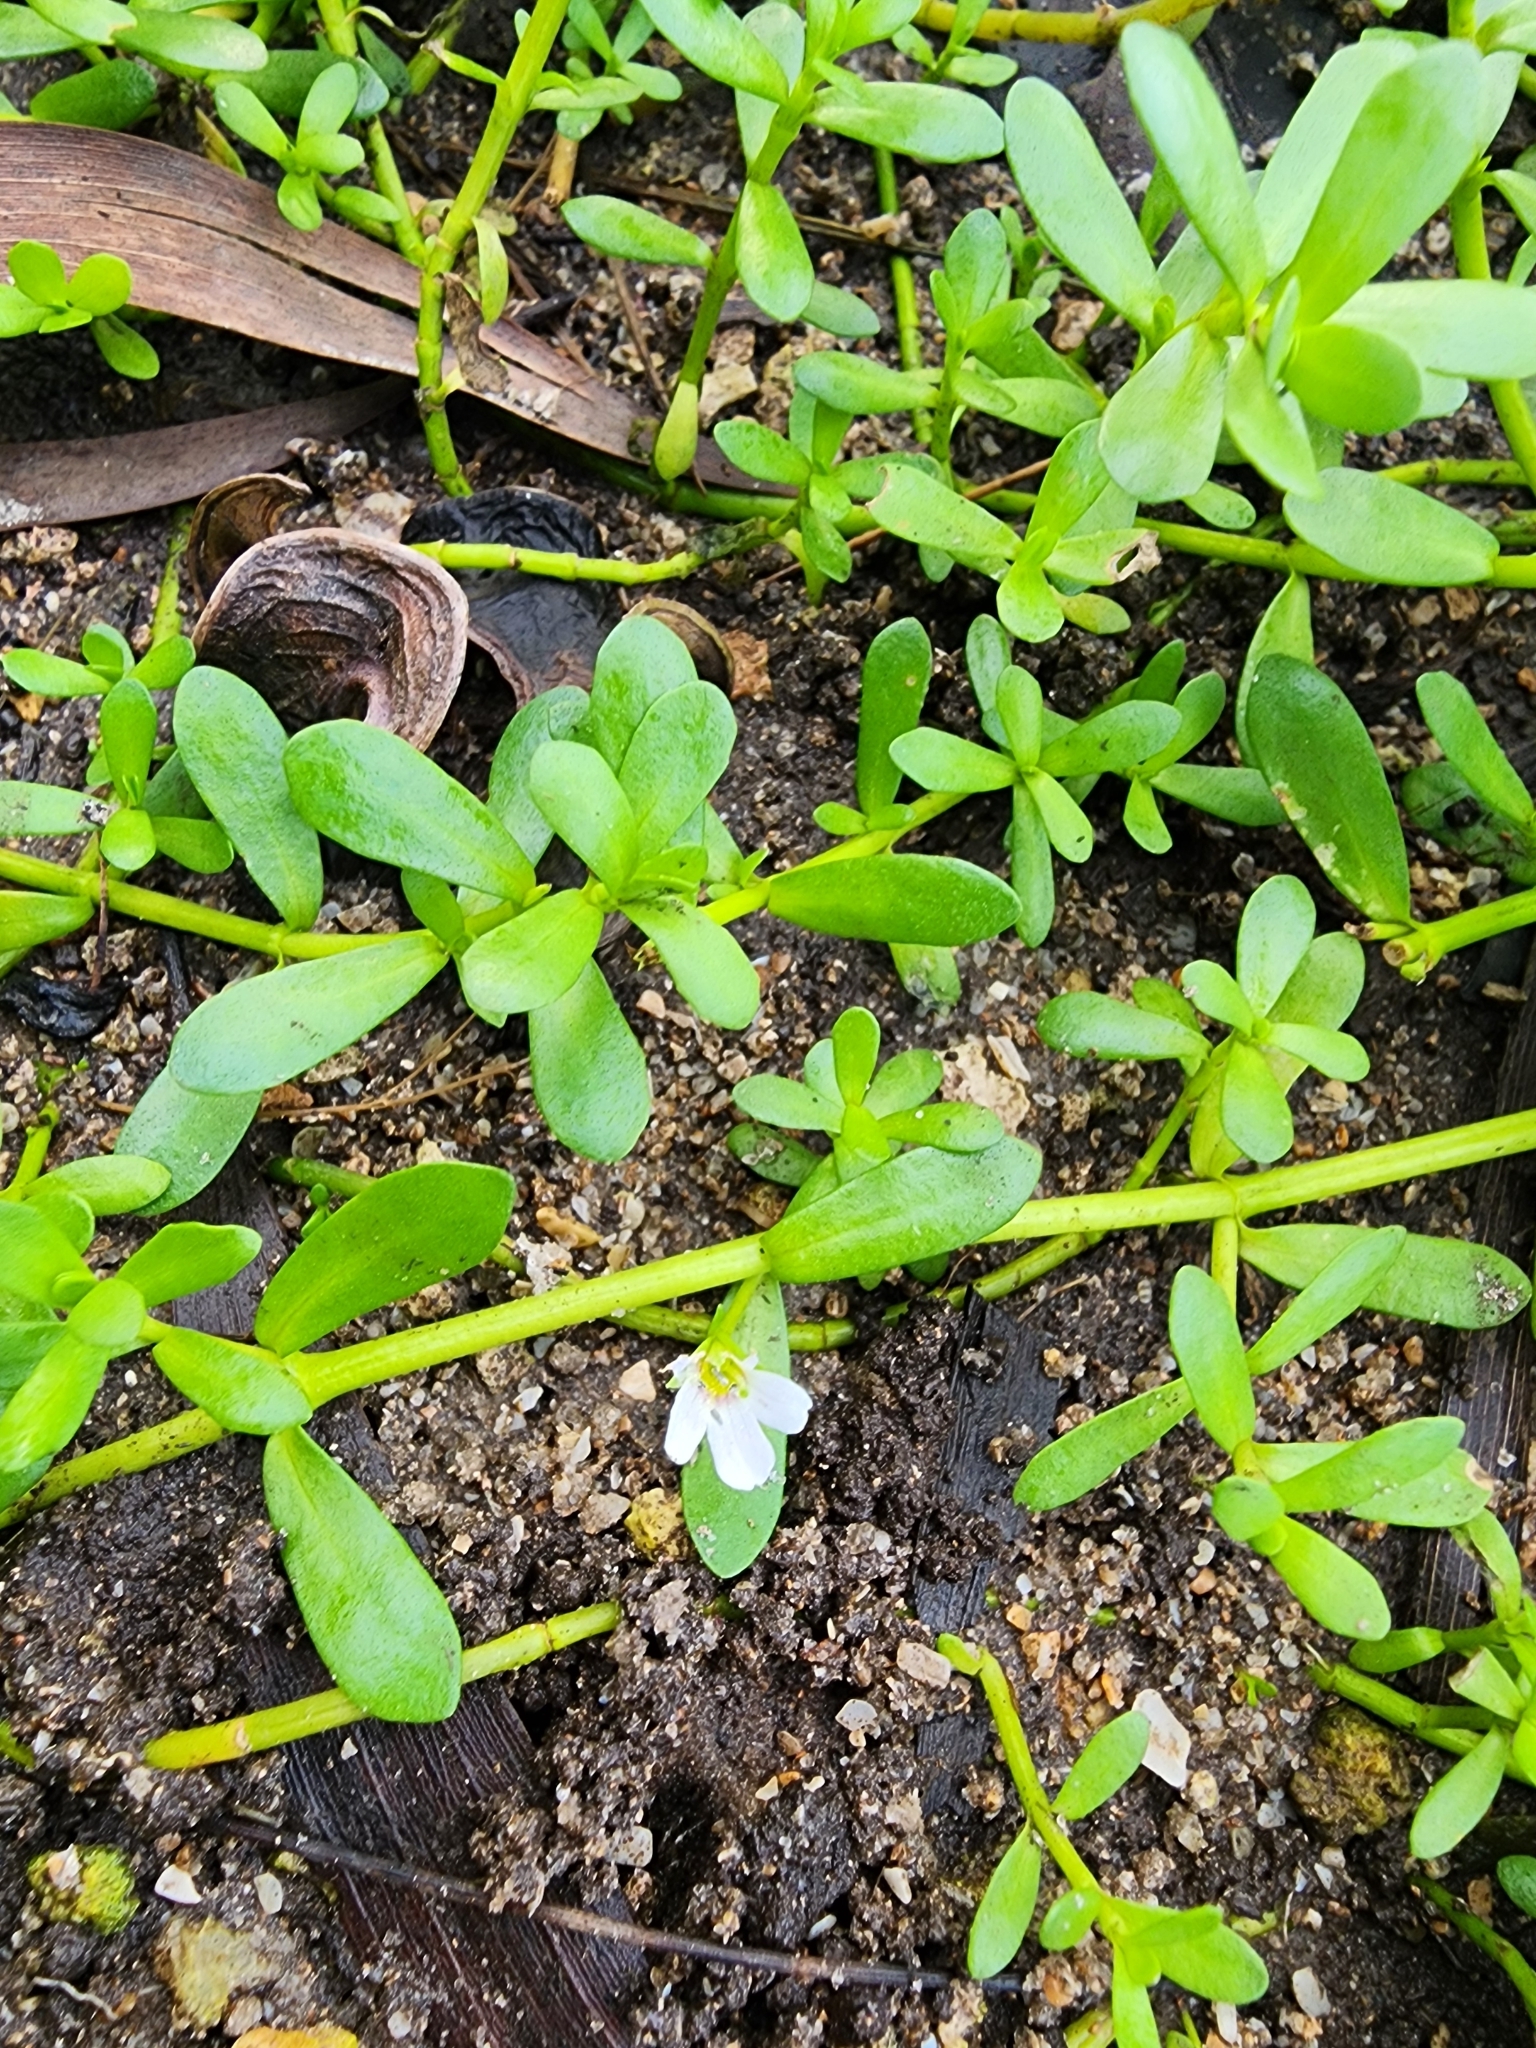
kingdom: Plantae
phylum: Tracheophyta
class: Magnoliopsida
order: Lamiales
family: Plantaginaceae
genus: Bacopa
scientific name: Bacopa monnieri
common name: Indian-pennywort
